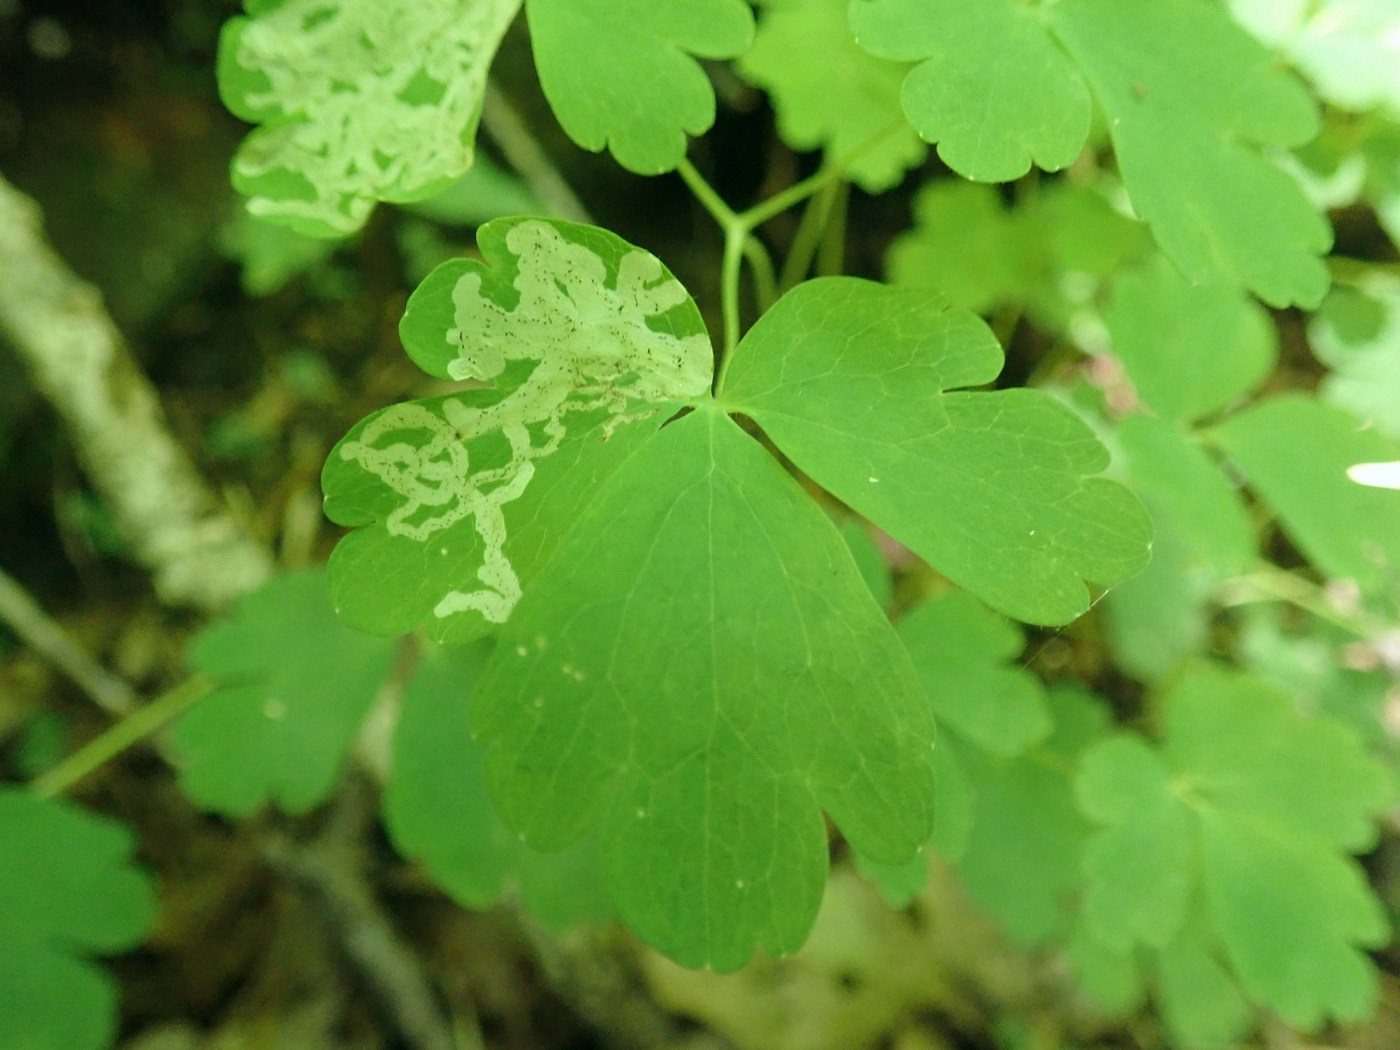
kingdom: Animalia
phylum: Arthropoda
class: Insecta
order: Diptera
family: Agromyzidae
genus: Phytomyza
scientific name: Phytomyza
